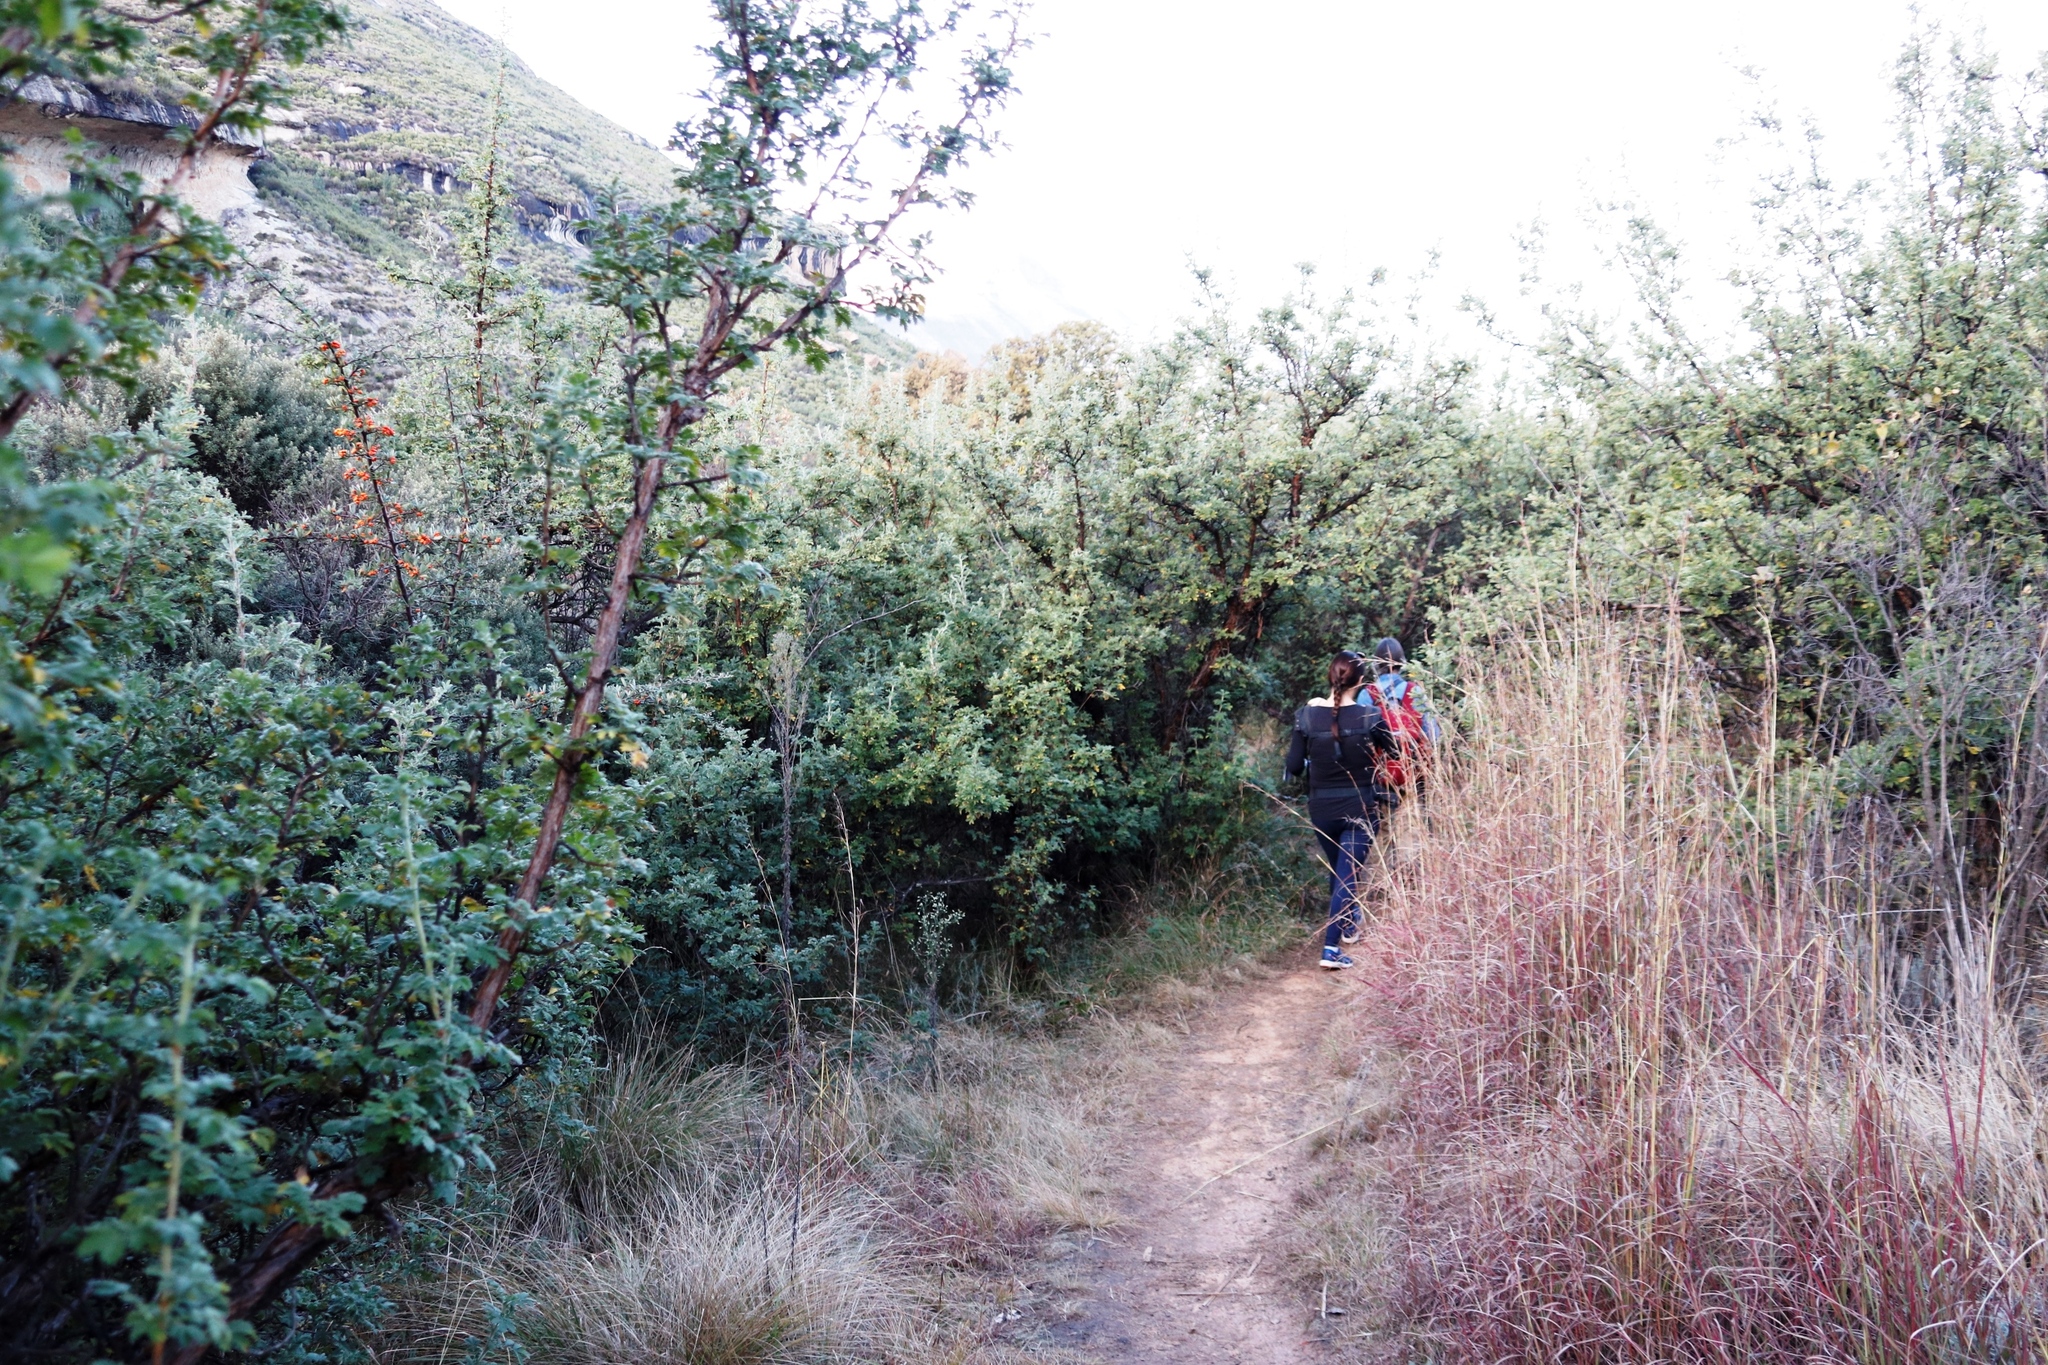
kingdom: Plantae
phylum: Tracheophyta
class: Magnoliopsida
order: Rosales
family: Rosaceae
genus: Leucosidea
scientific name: Leucosidea sericea
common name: Oldwood
